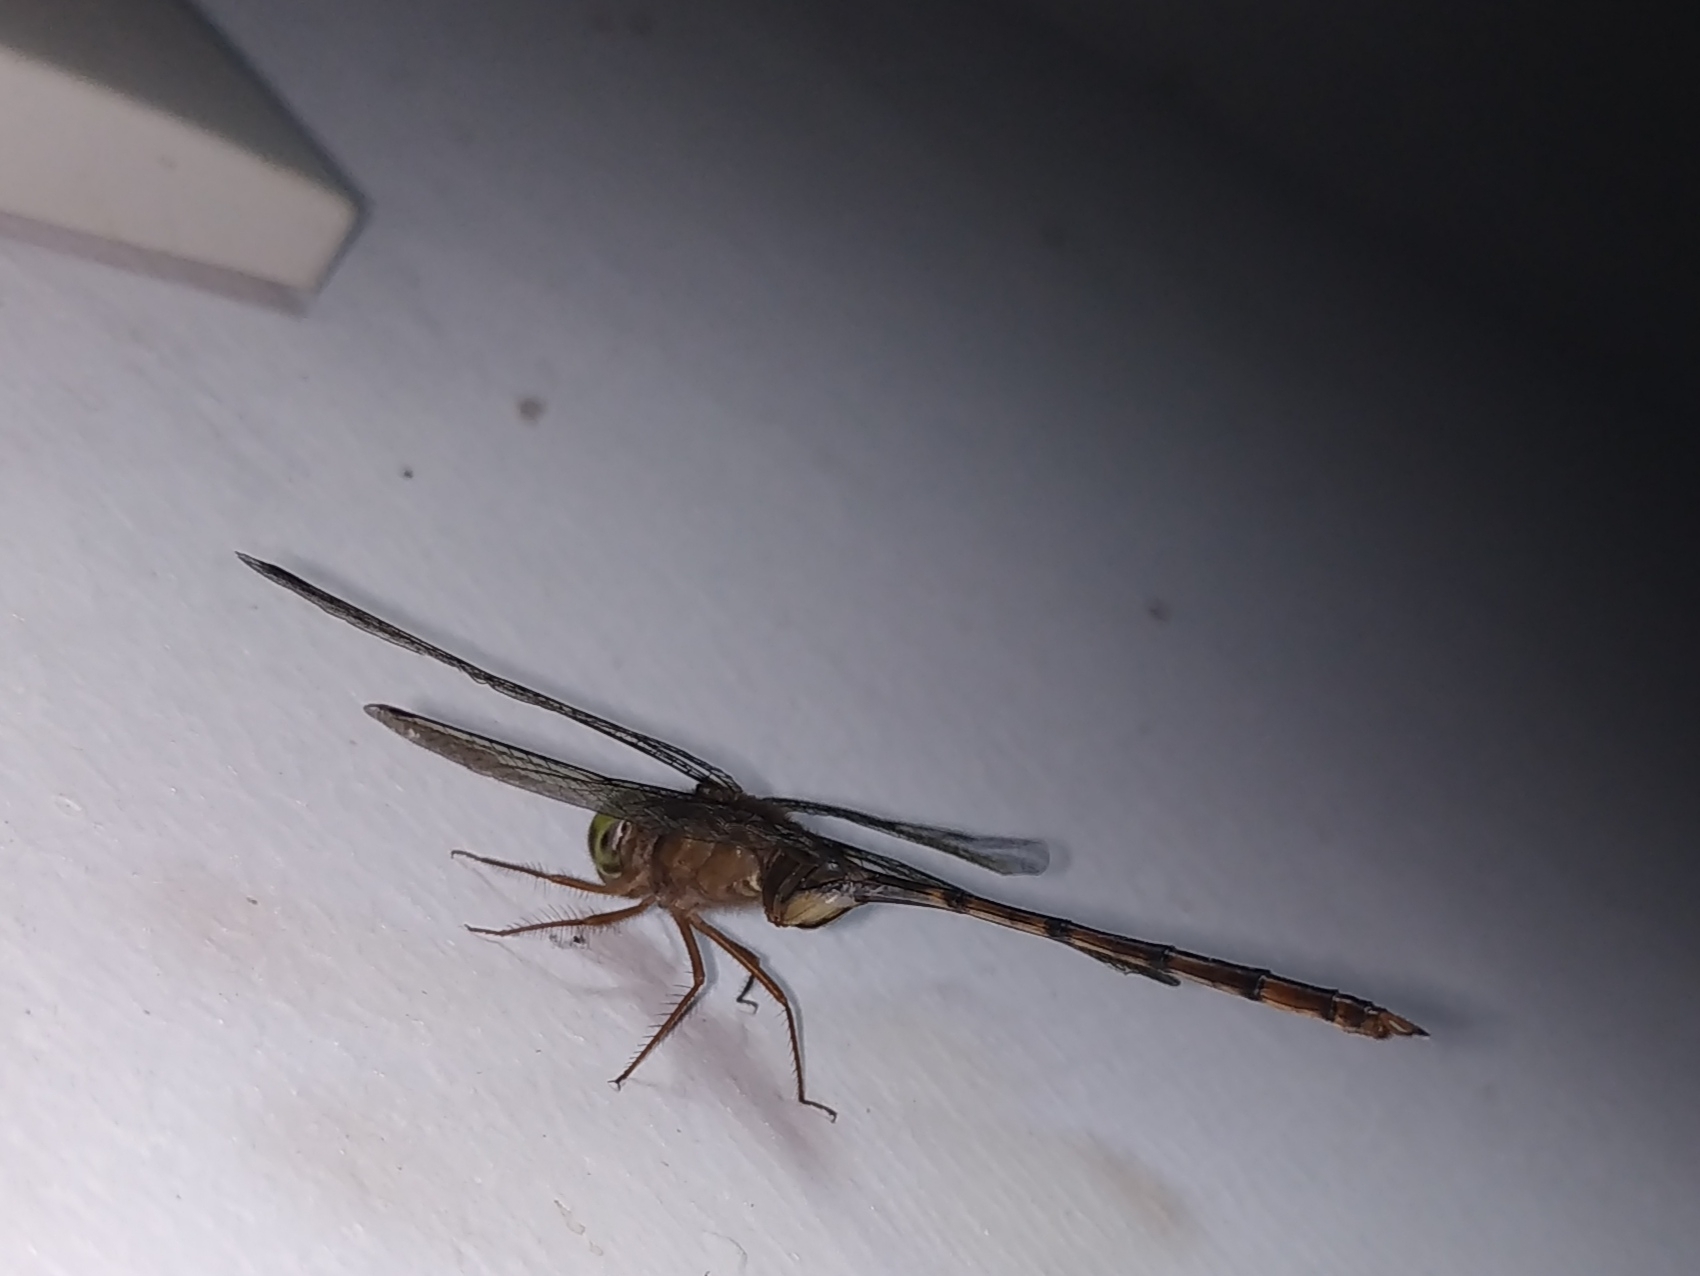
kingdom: Animalia
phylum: Arthropoda
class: Insecta
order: Odonata
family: Libellulidae
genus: Zyxomma
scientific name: Zyxomma petiolatum
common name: Dingy dusk-darter
